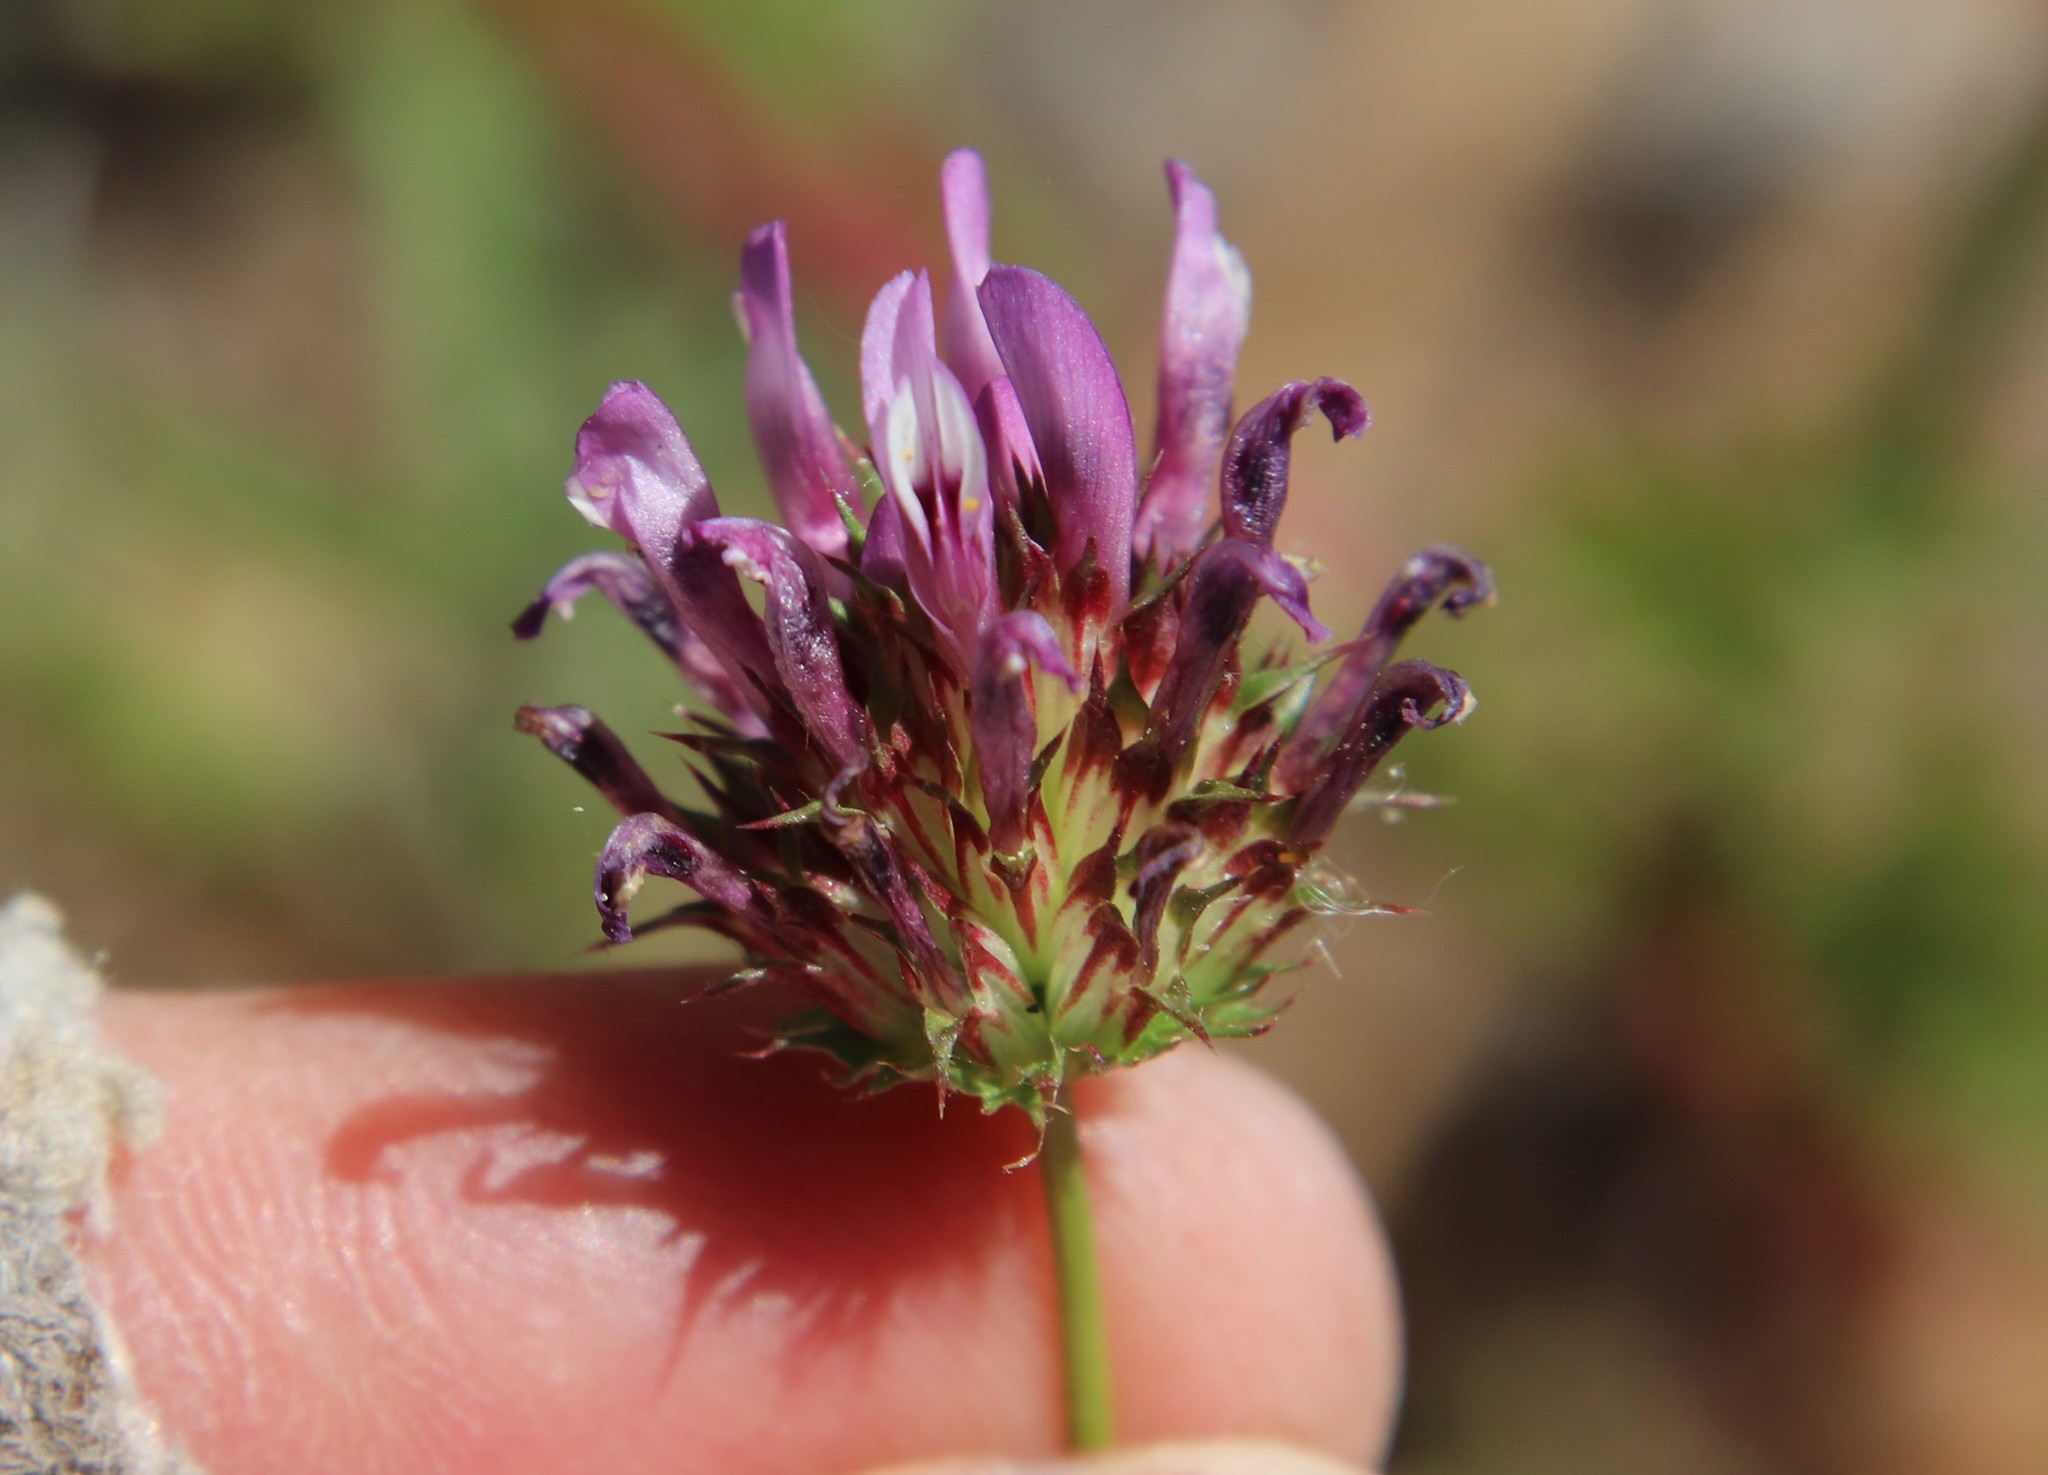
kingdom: Plantae
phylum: Tracheophyta
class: Magnoliopsida
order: Fabales
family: Fabaceae
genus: Trifolium
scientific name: Trifolium willdenovii
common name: Tomcat clover
